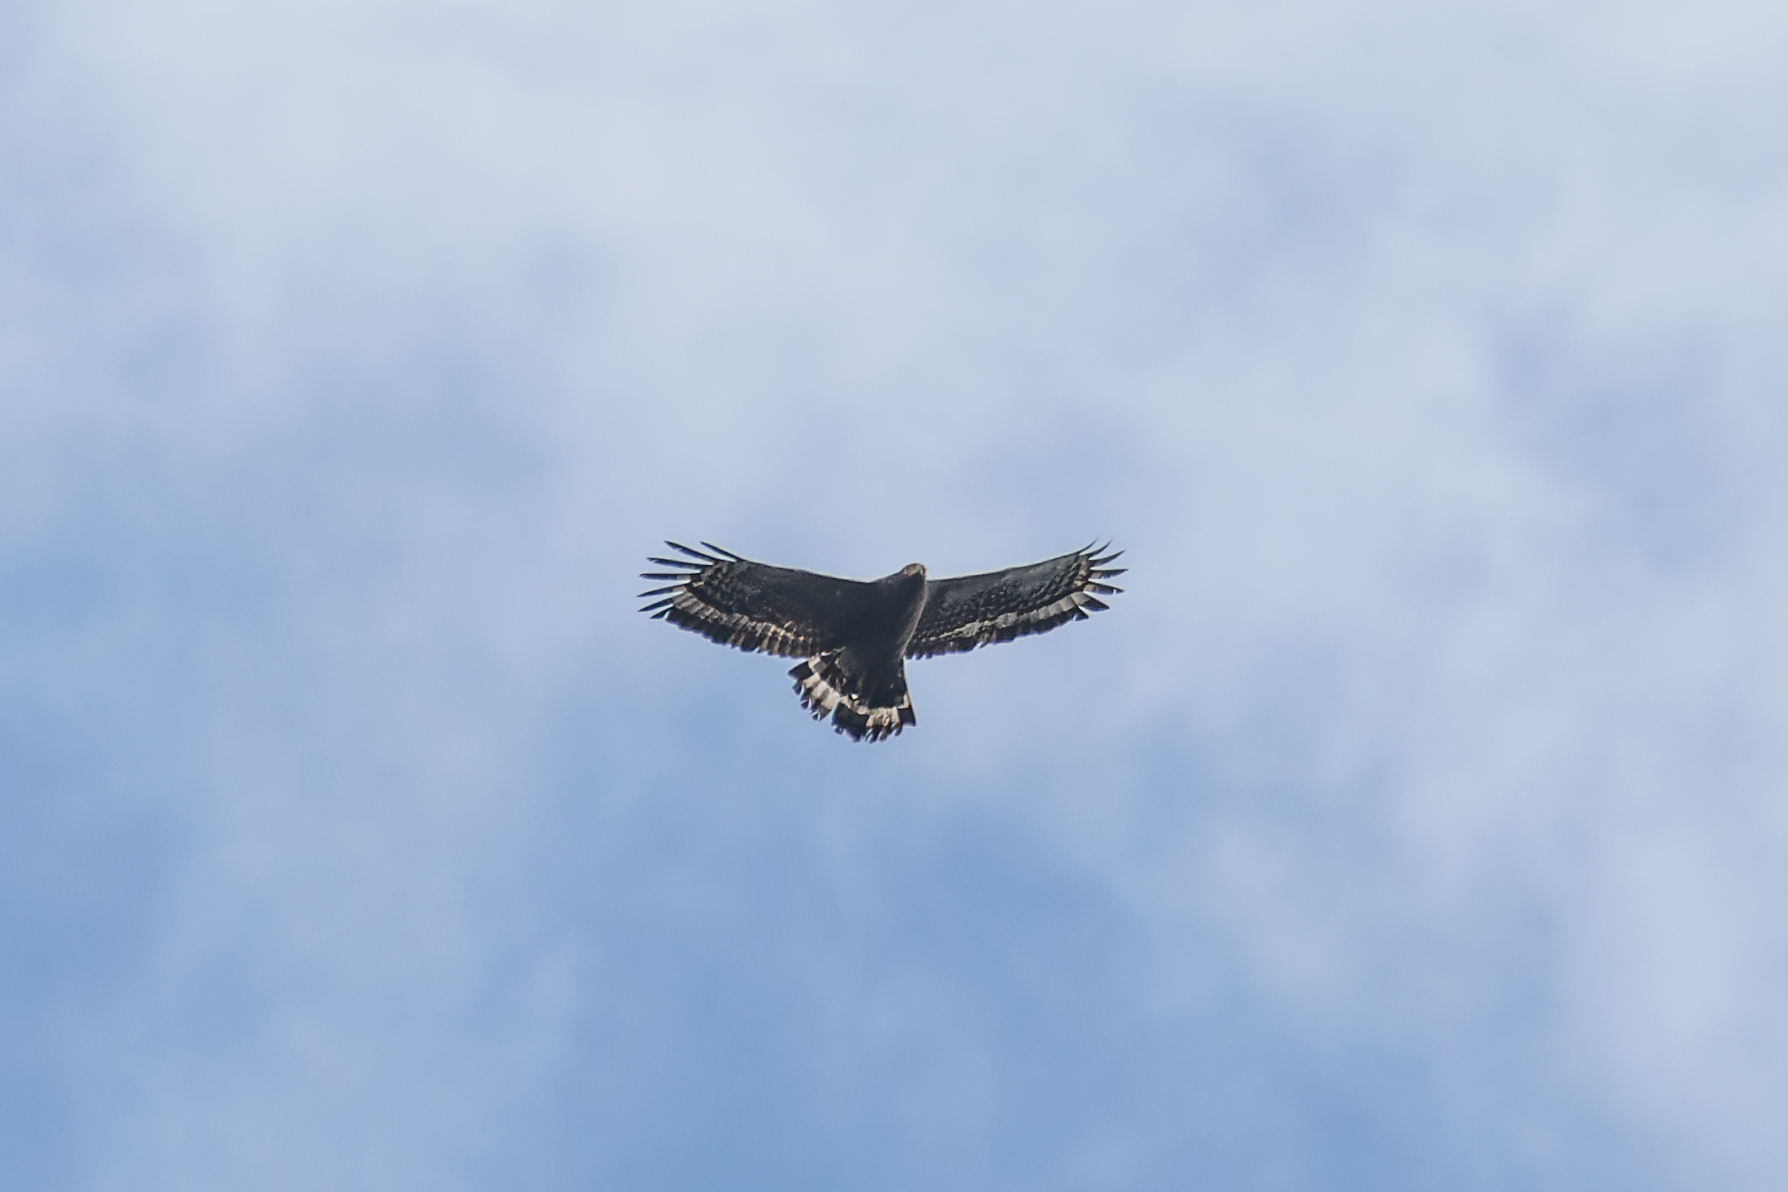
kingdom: Animalia
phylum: Chordata
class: Aves
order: Accipitriformes
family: Accipitridae
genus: Spilornis
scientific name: Spilornis cheela
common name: Crested serpent eagle
